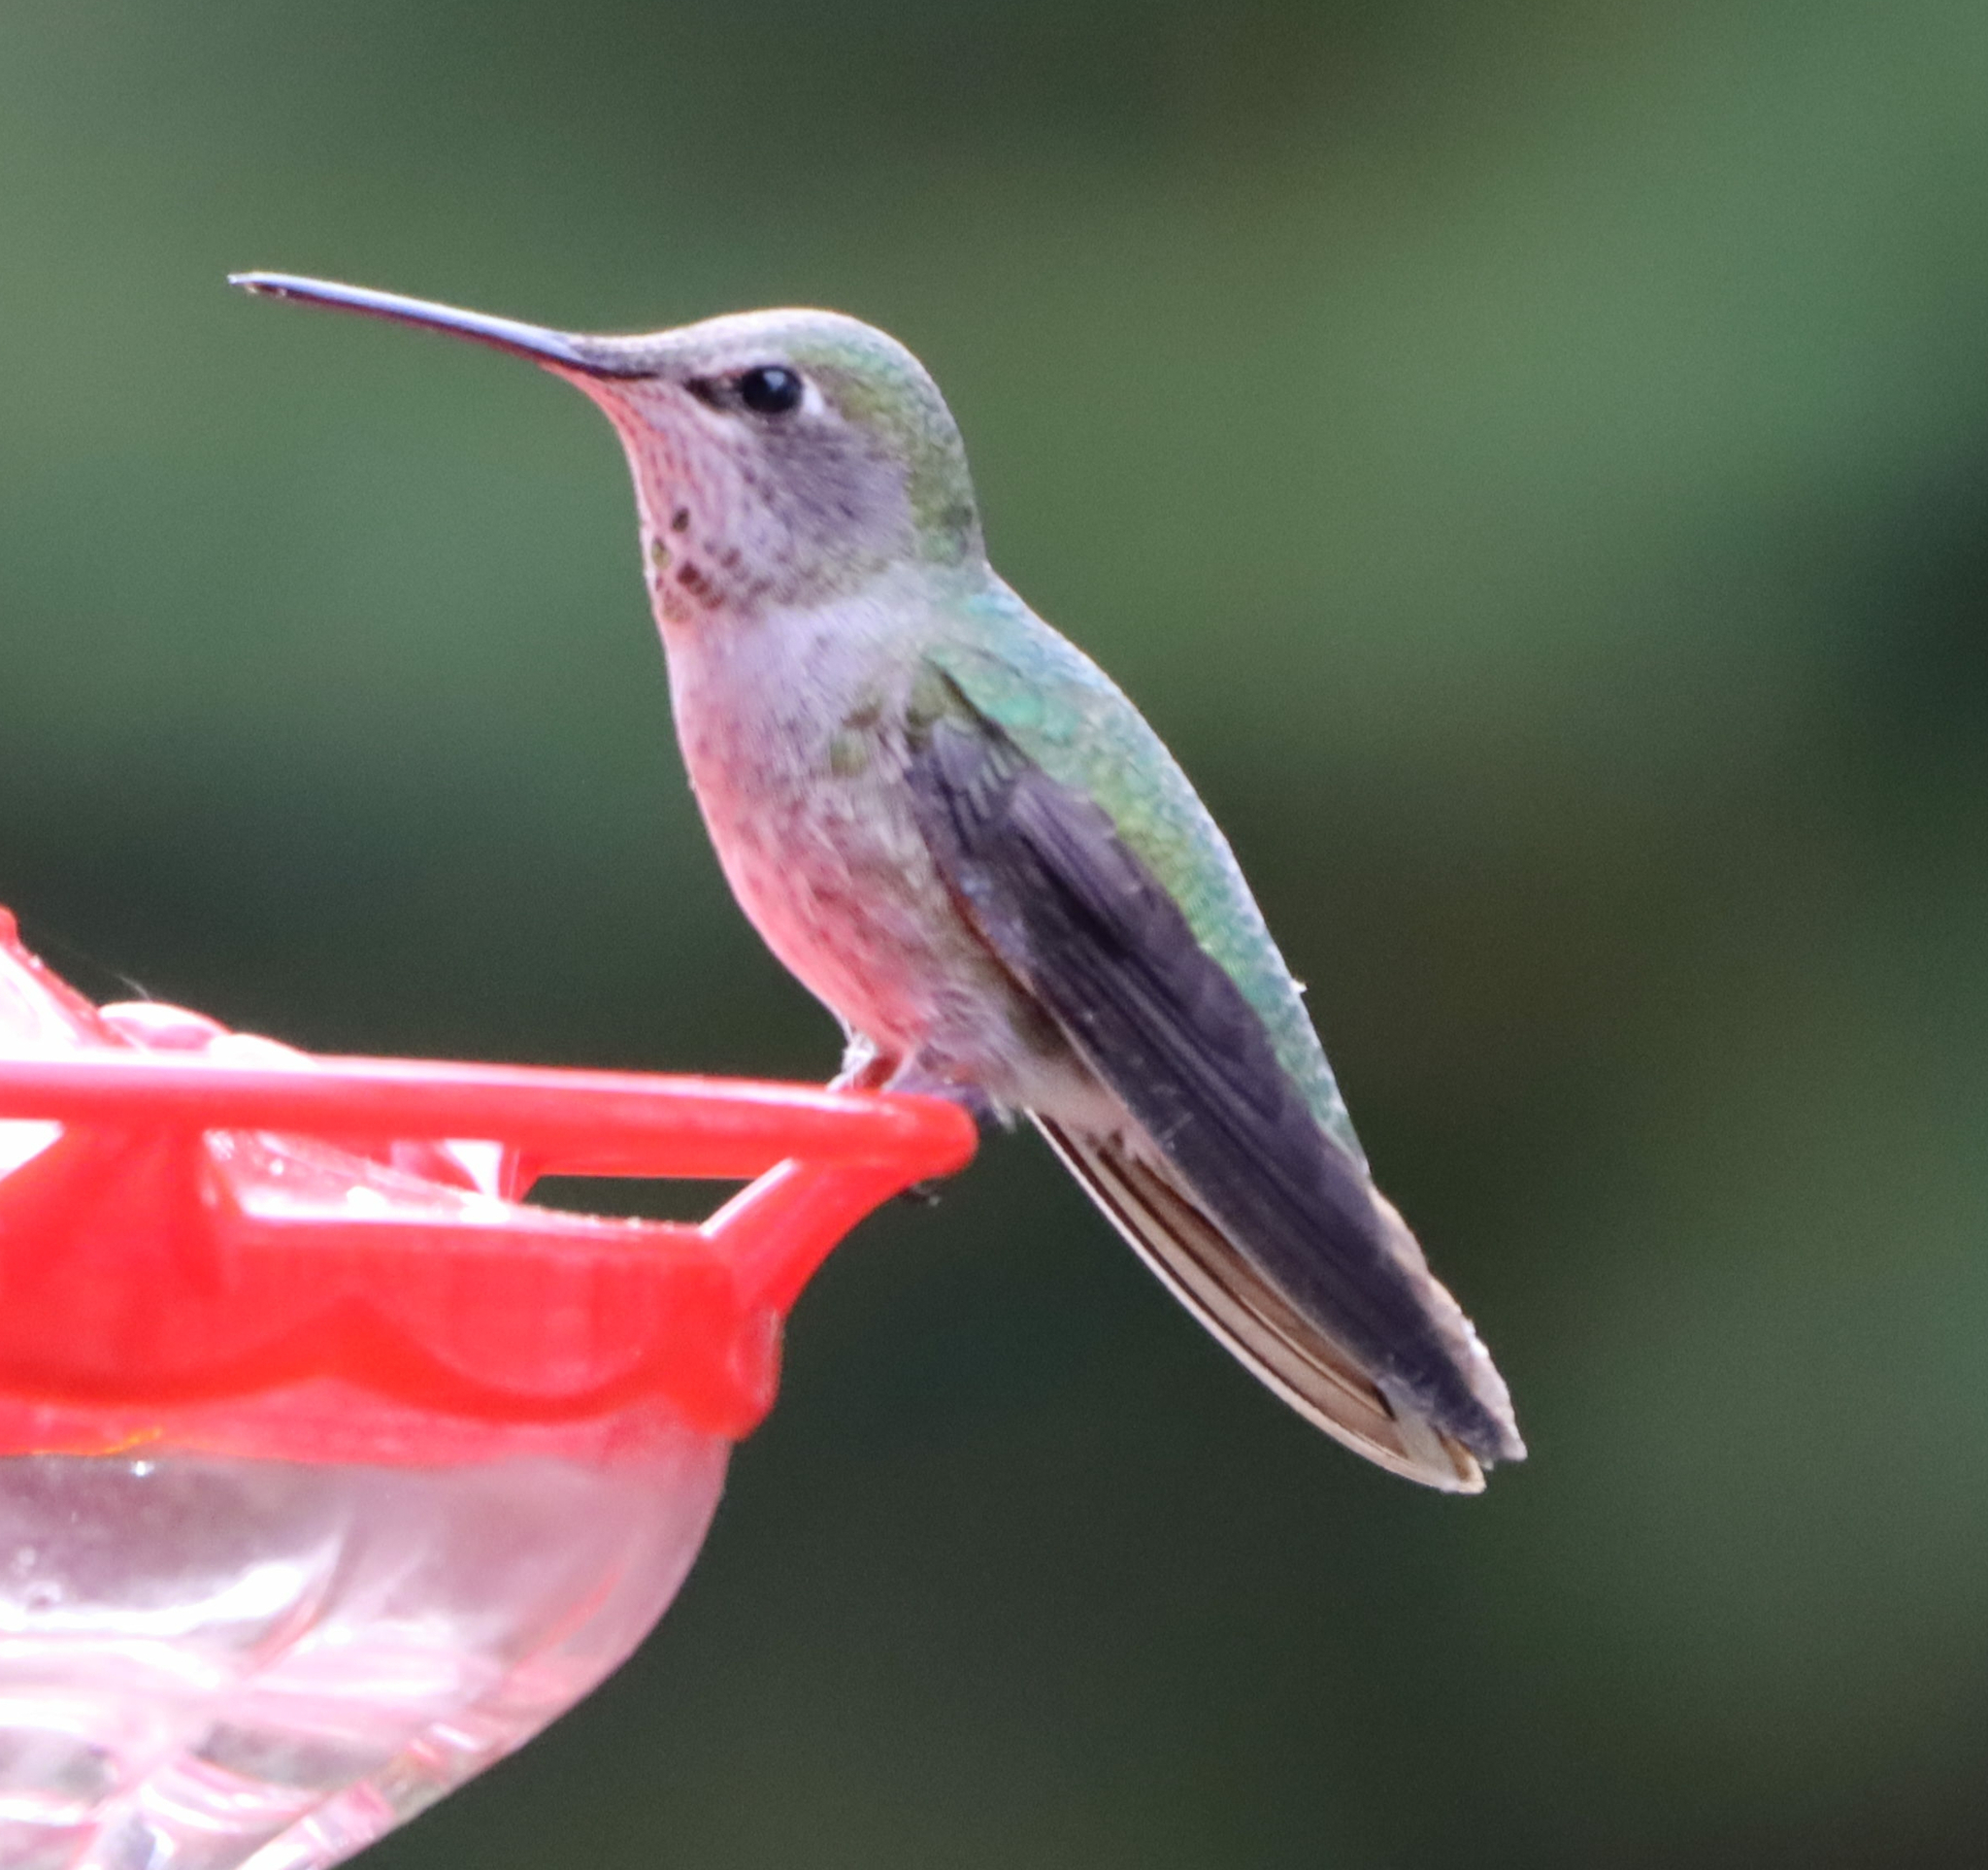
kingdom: Animalia
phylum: Chordata
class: Aves
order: Apodiformes
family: Trochilidae
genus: Calypte
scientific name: Calypte anna
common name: Anna's hummingbird
